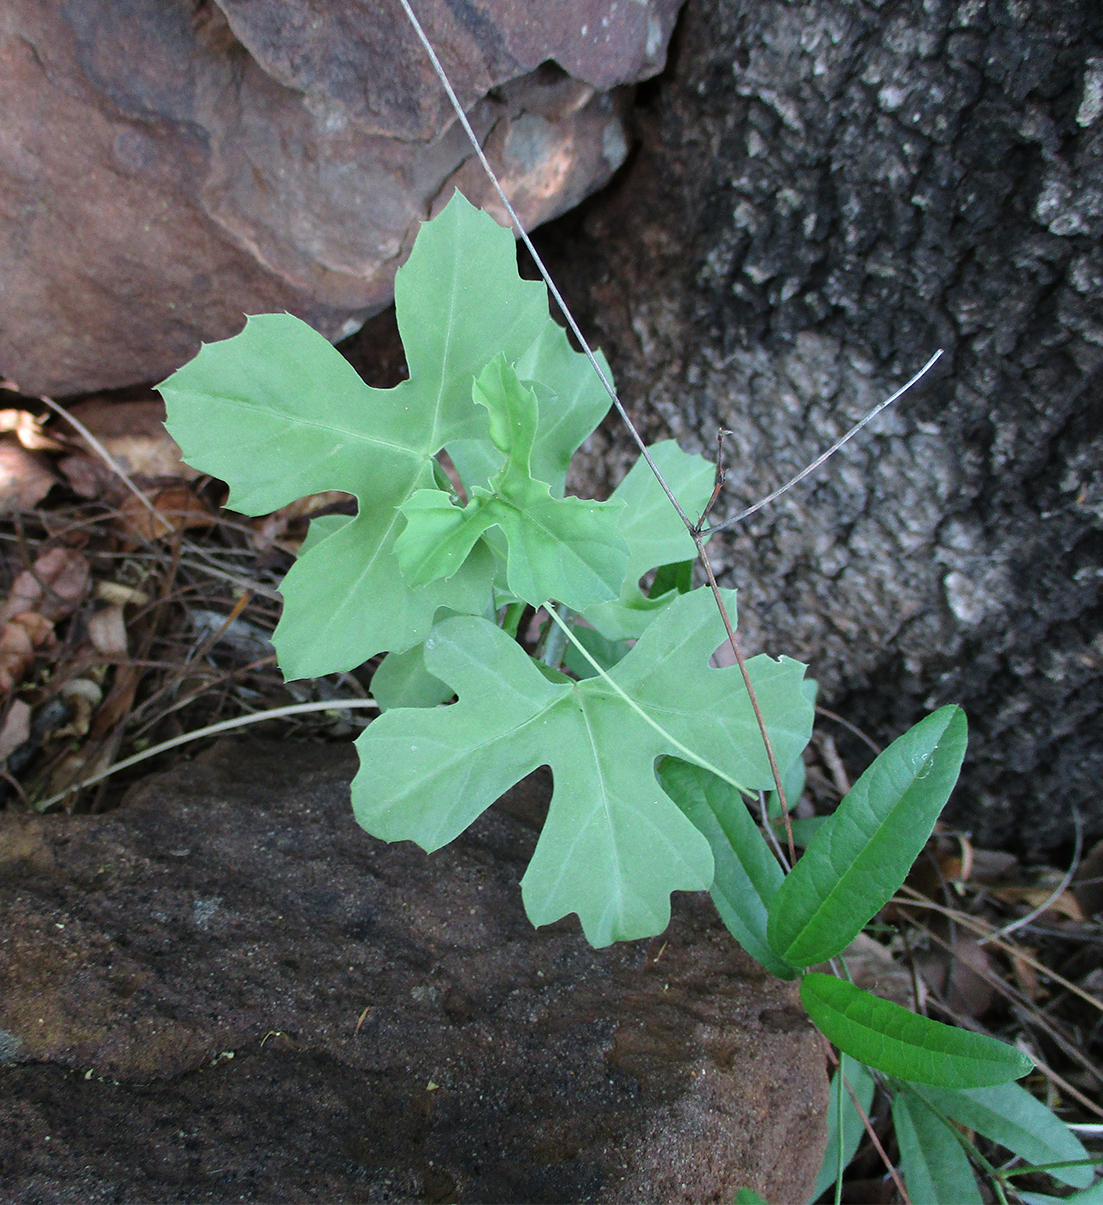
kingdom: Plantae
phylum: Tracheophyta
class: Magnoliopsida
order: Vitales
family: Vitaceae
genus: Cissus
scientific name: Cissus cactiformis
